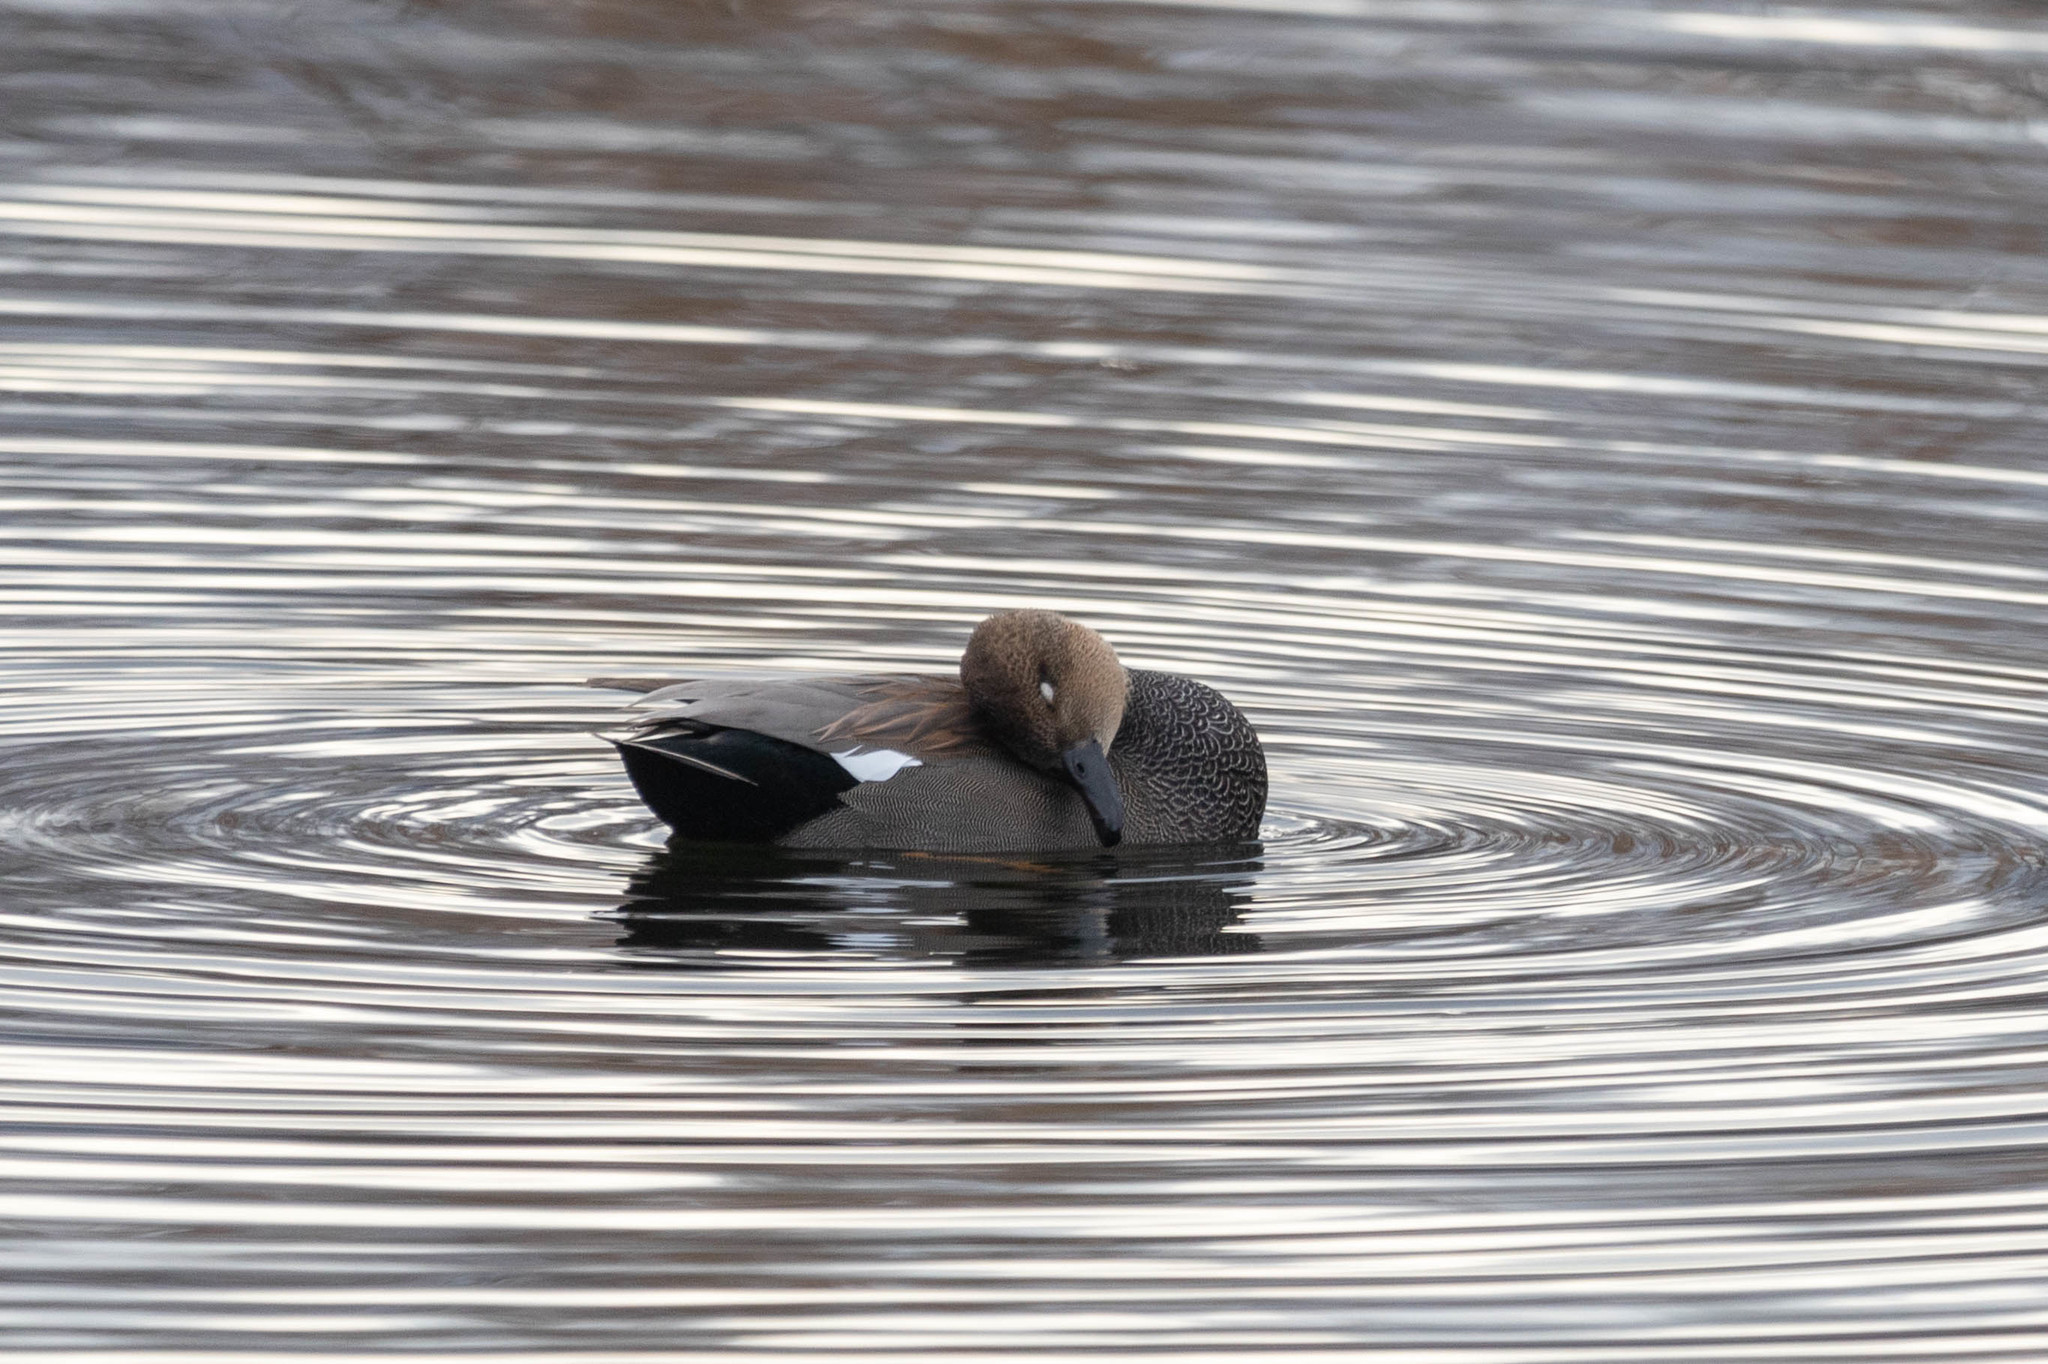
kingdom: Animalia
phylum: Chordata
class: Aves
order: Anseriformes
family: Anatidae
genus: Mareca
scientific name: Mareca strepera
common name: Gadwall
